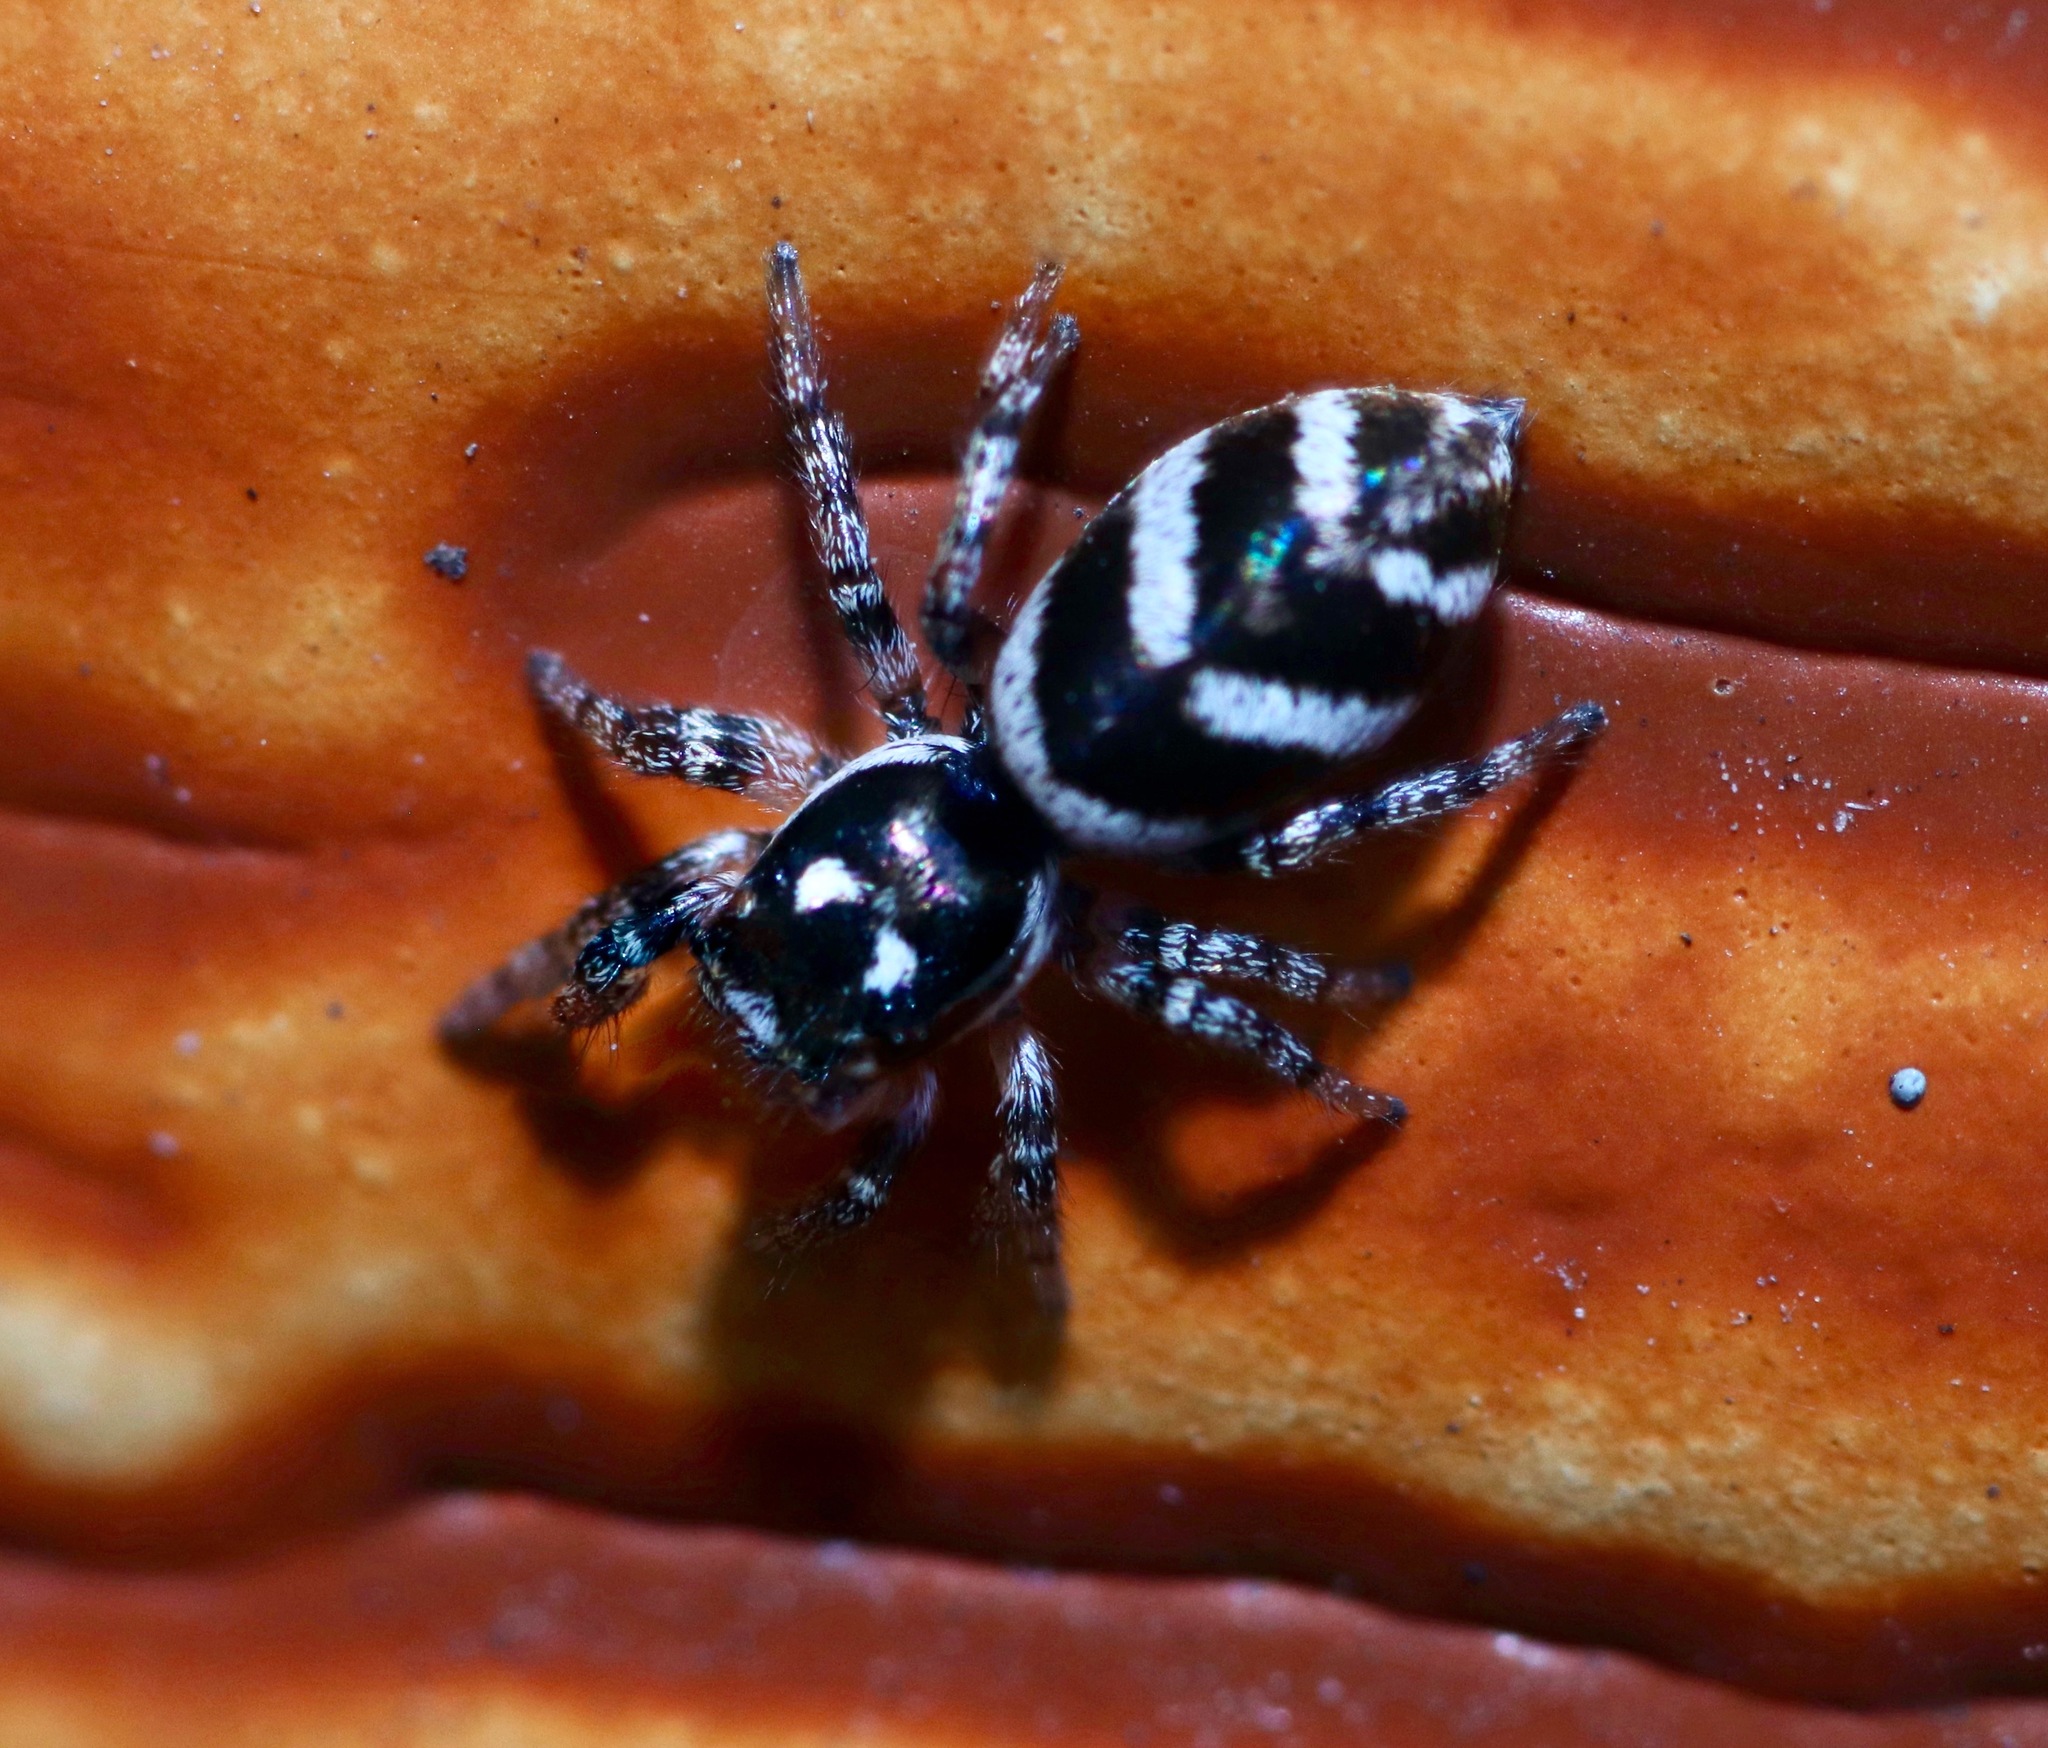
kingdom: Animalia
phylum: Arthropoda
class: Arachnida
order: Araneae
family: Salticidae
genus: Salticus
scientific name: Salticus scenicus
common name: Zebra jumper
